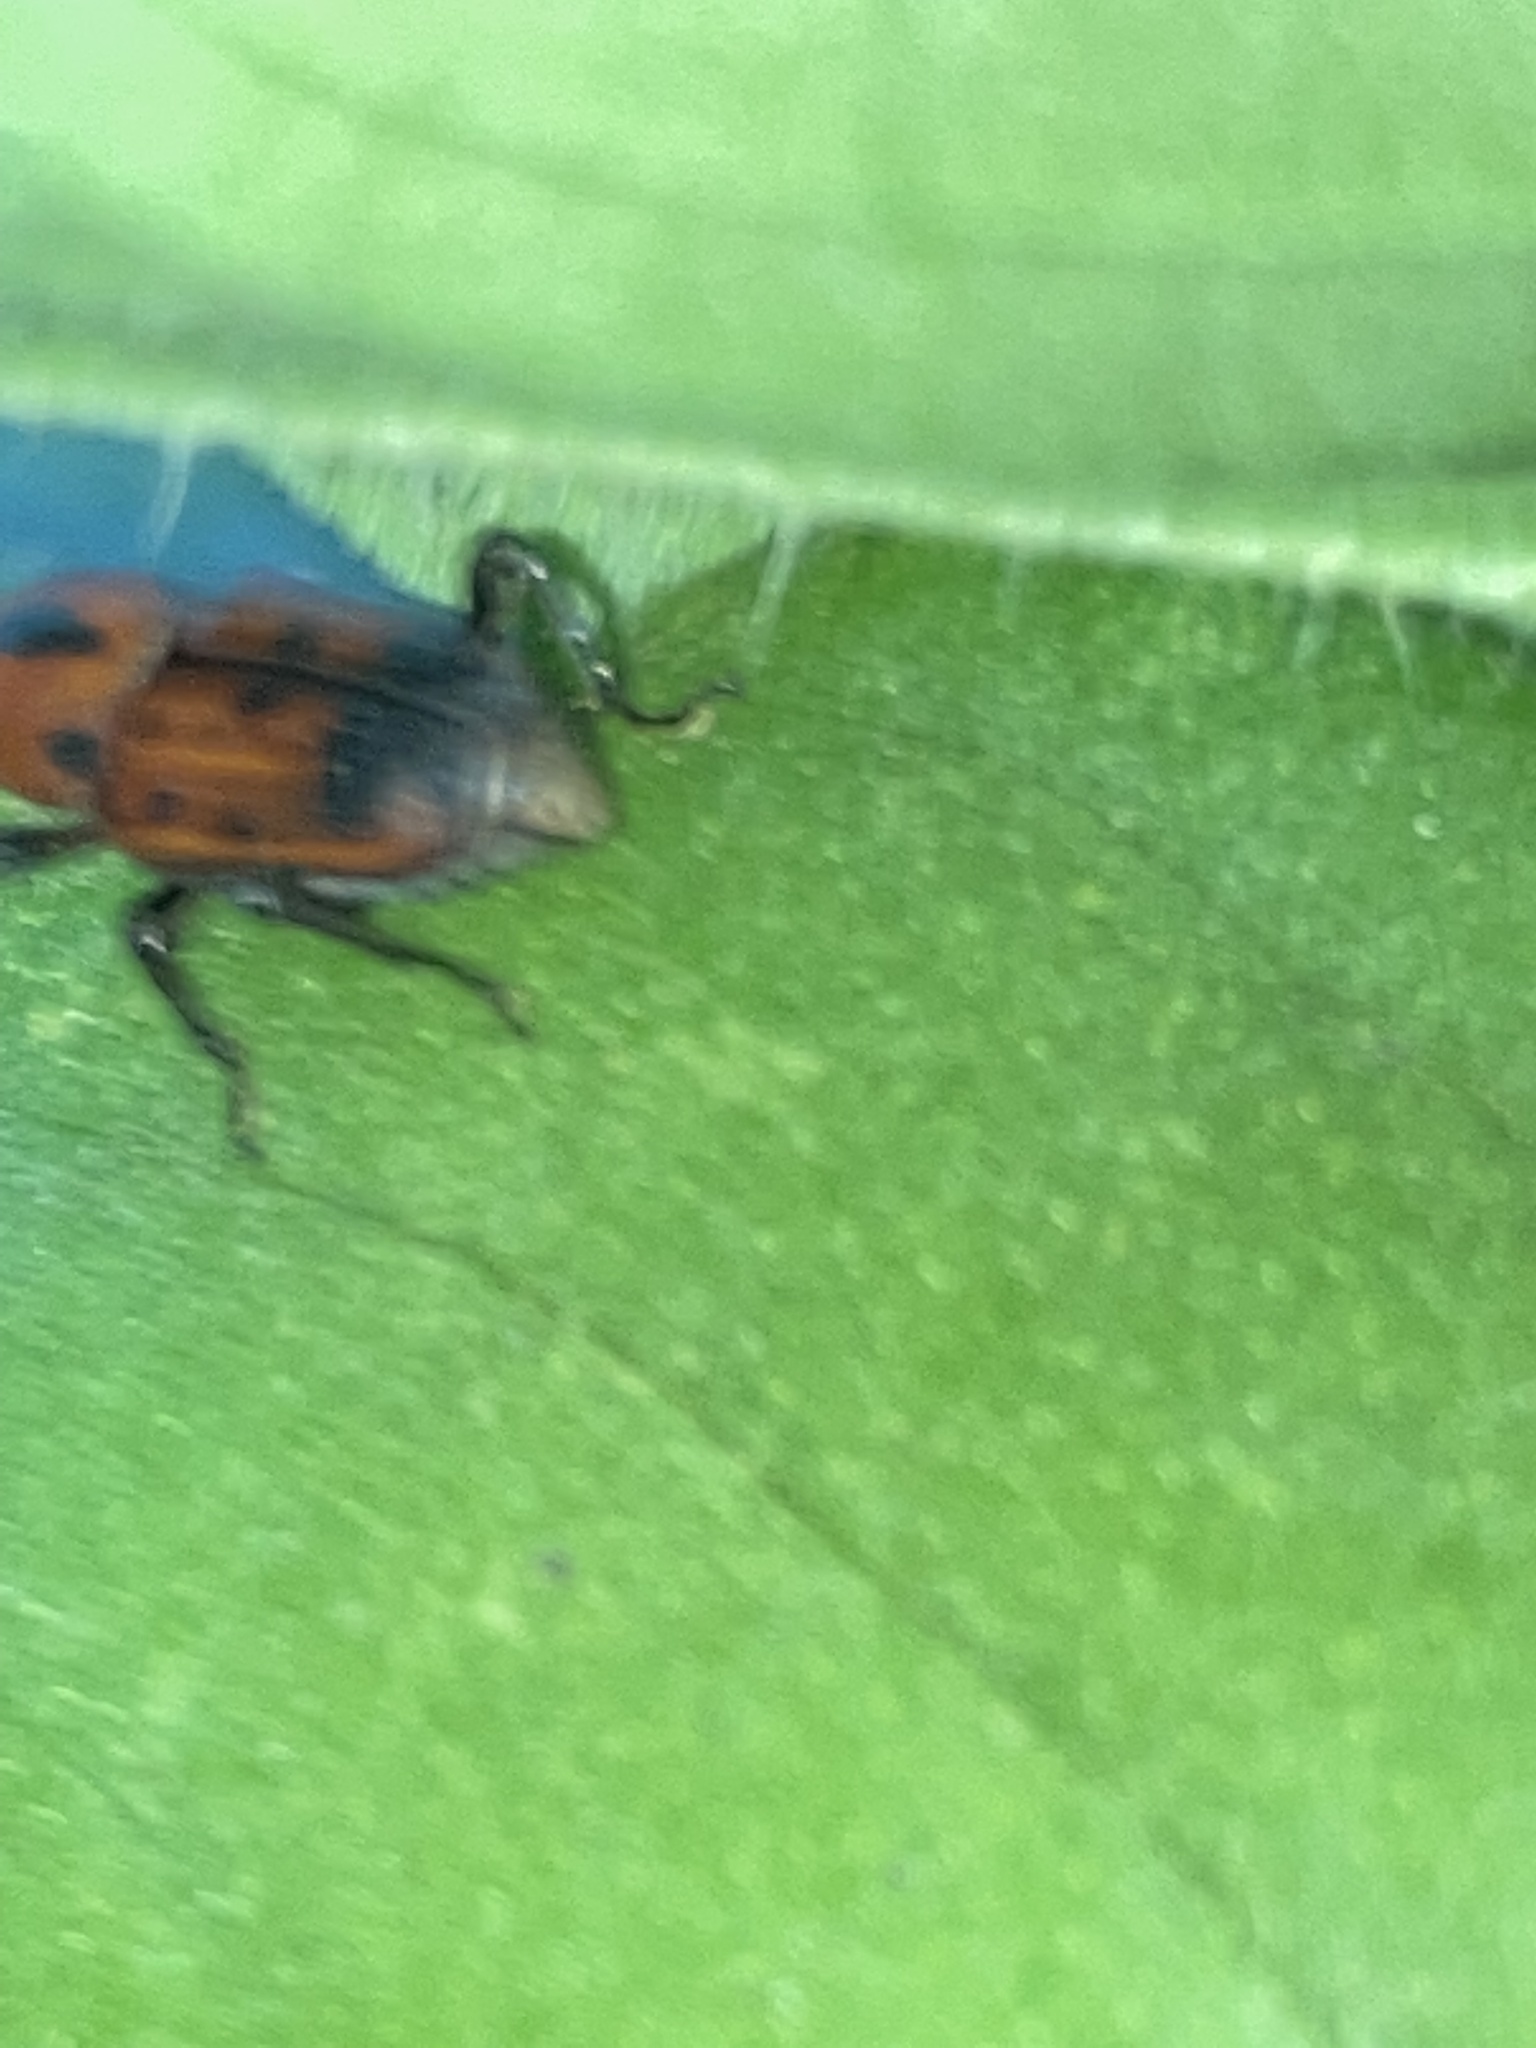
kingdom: Animalia
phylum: Arthropoda
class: Insecta
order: Coleoptera
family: Dryophthoridae
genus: Rhodobaenus
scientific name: Rhodobaenus quinquepunctatus
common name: Cocklebur weevil
